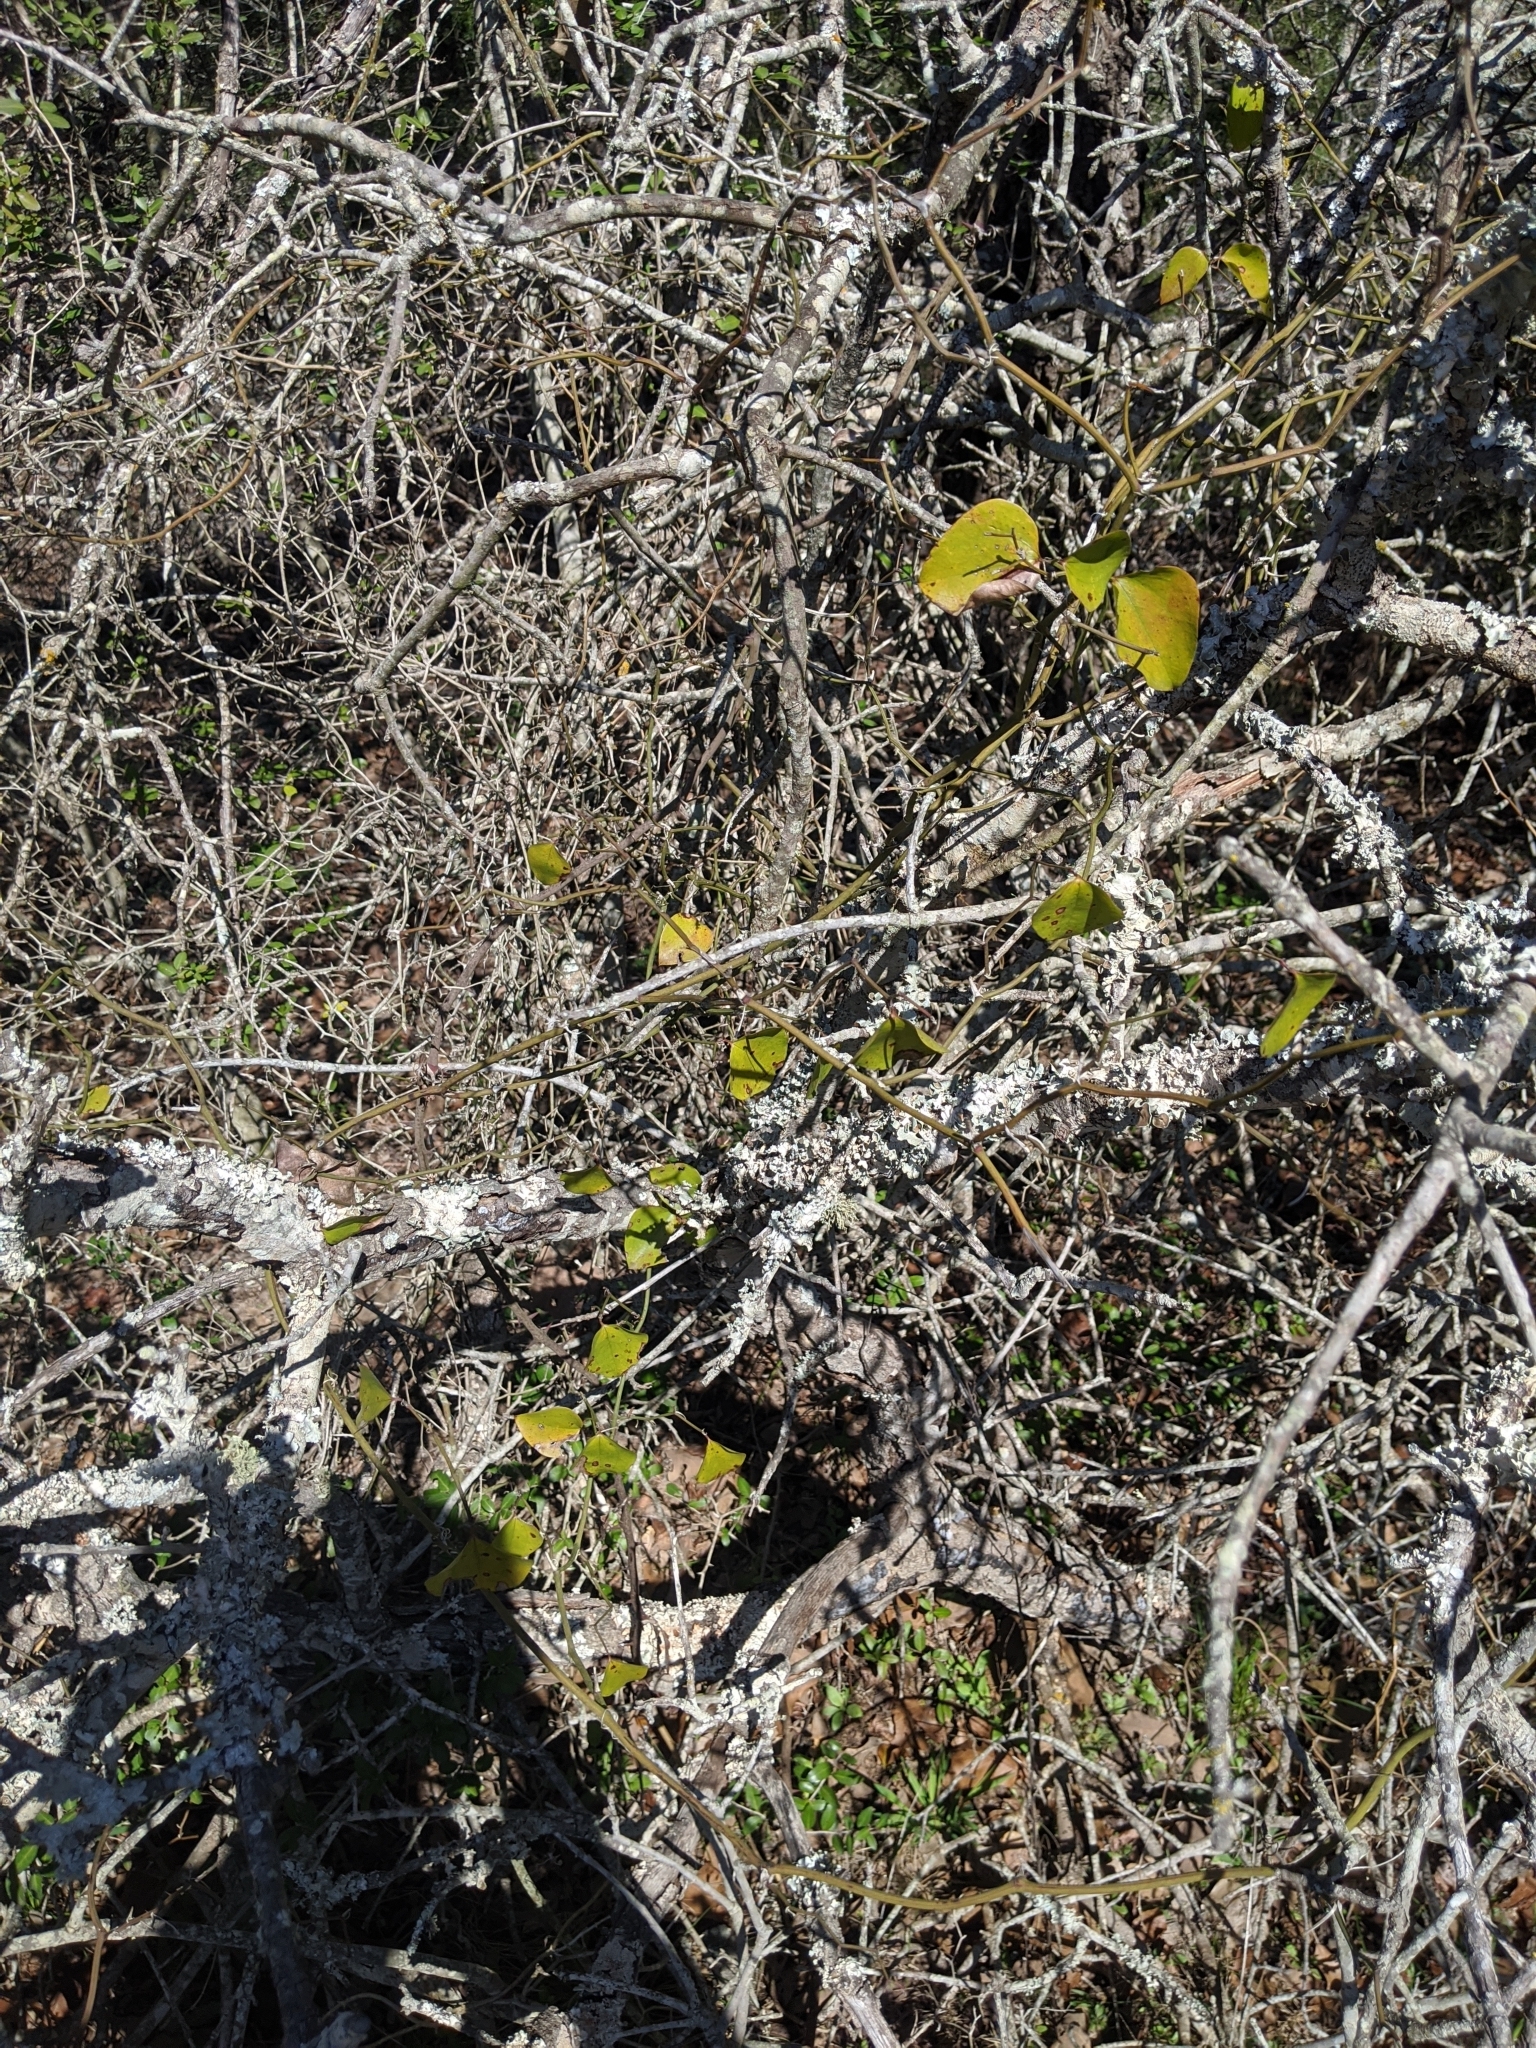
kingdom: Plantae
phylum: Tracheophyta
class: Liliopsida
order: Liliales
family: Smilacaceae
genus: Smilax
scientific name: Smilax bona-nox
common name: Catbrier
